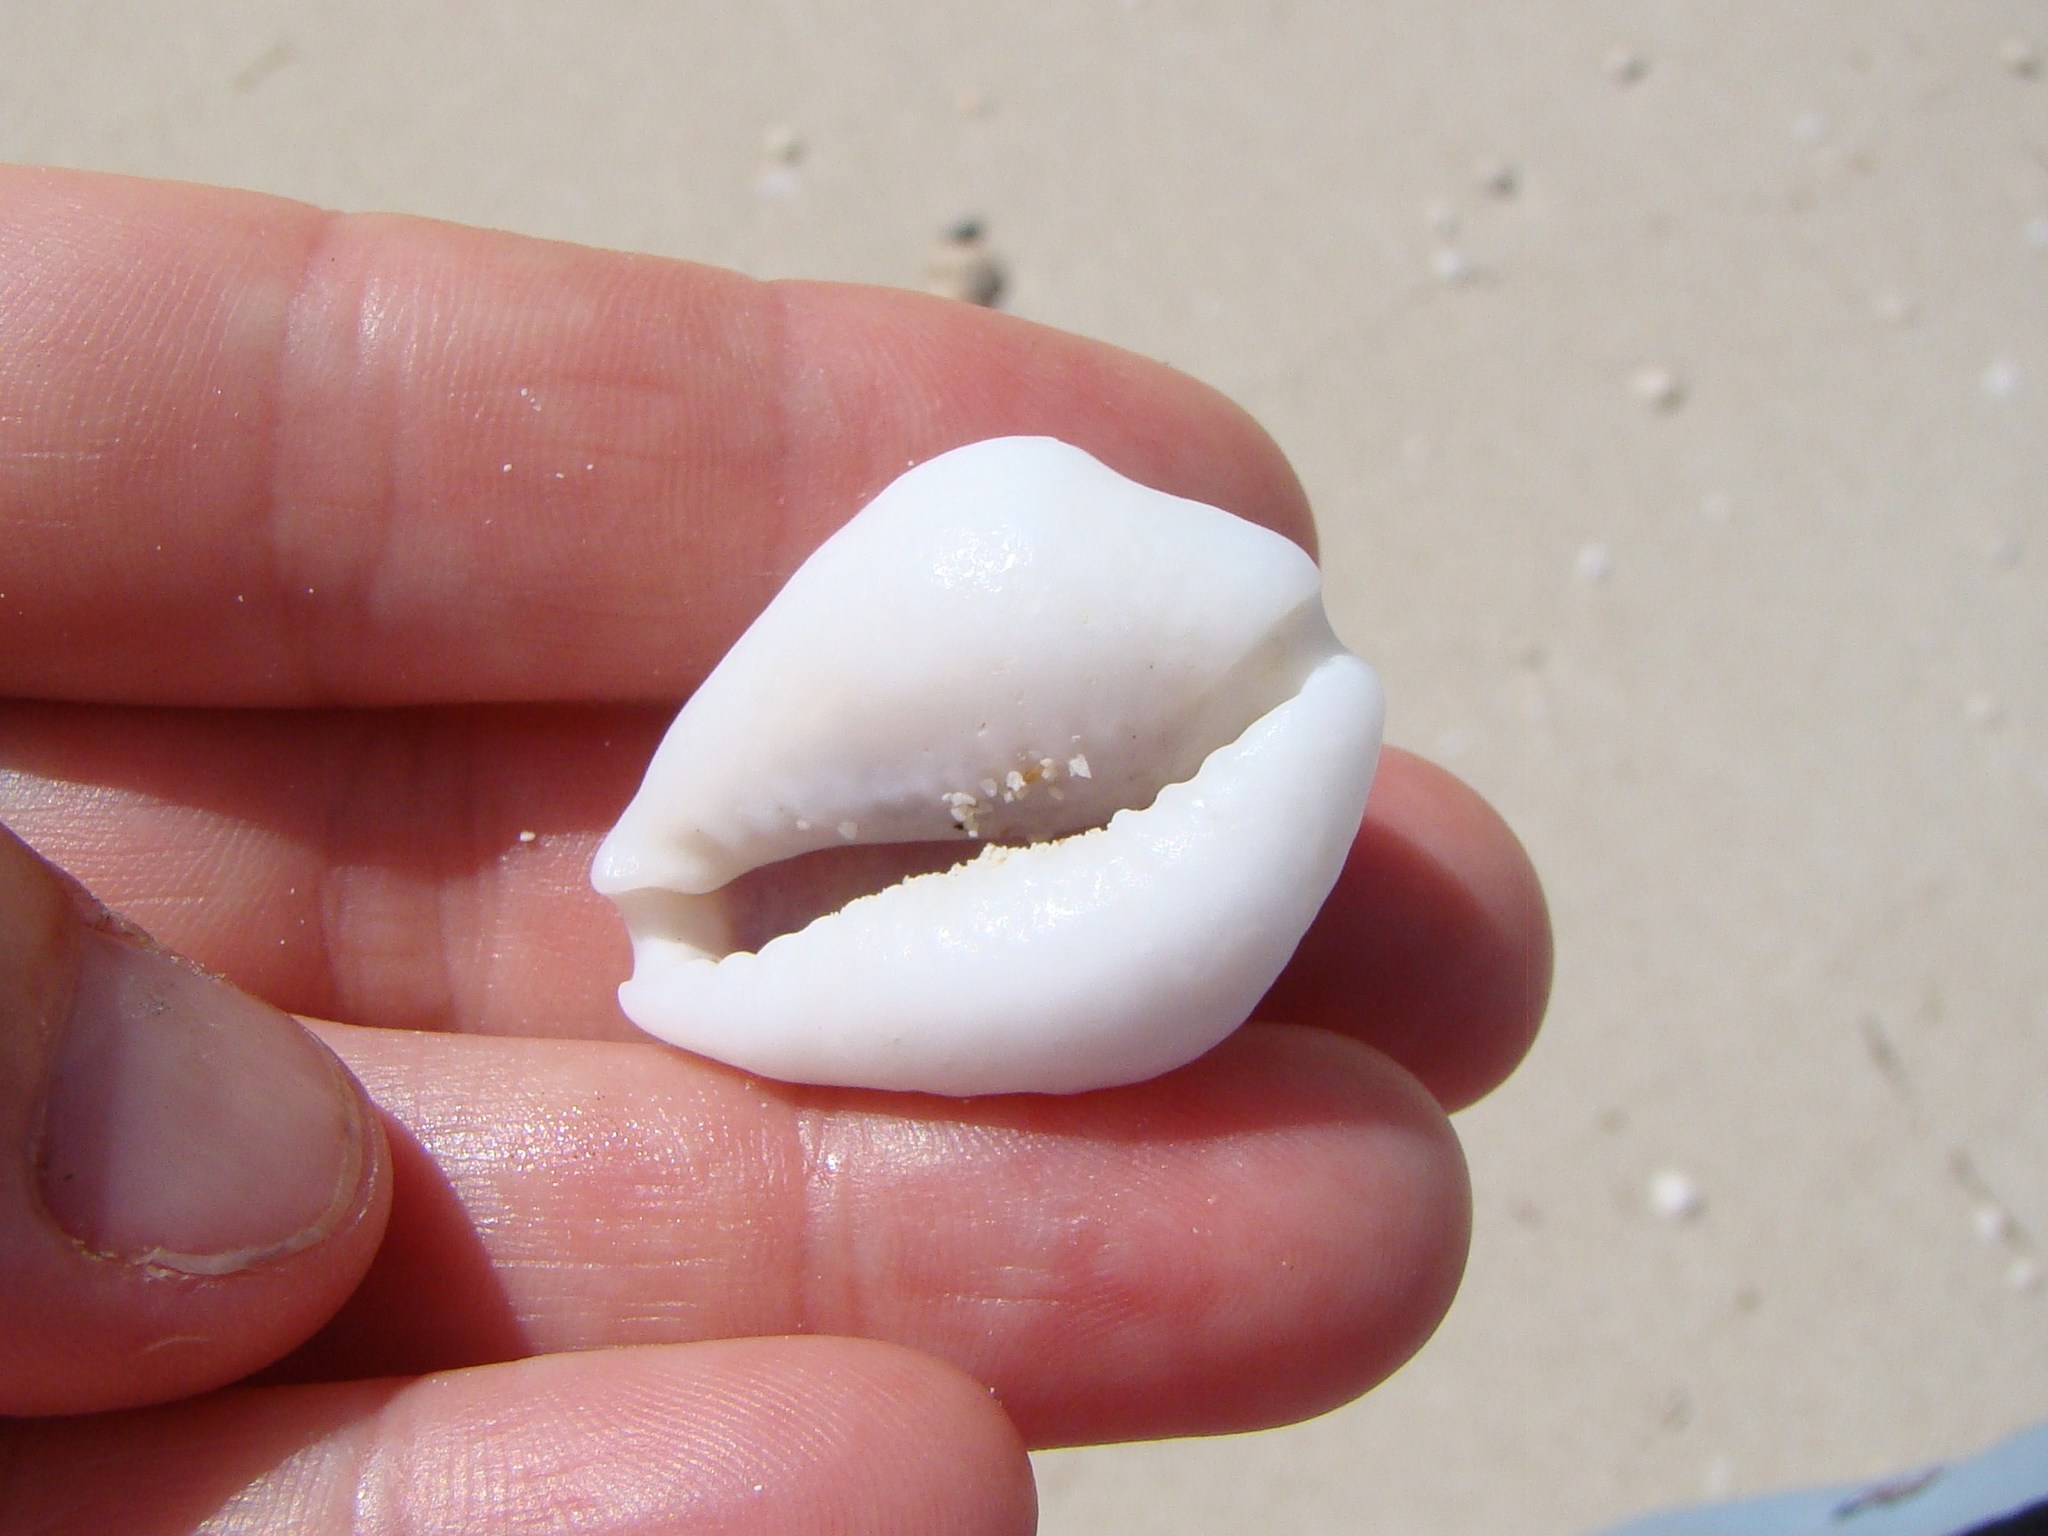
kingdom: Animalia
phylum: Mollusca
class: Gastropoda
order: Littorinimorpha
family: Cypraeidae
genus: Monetaria
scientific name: Monetaria moneta
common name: Money cowrie
